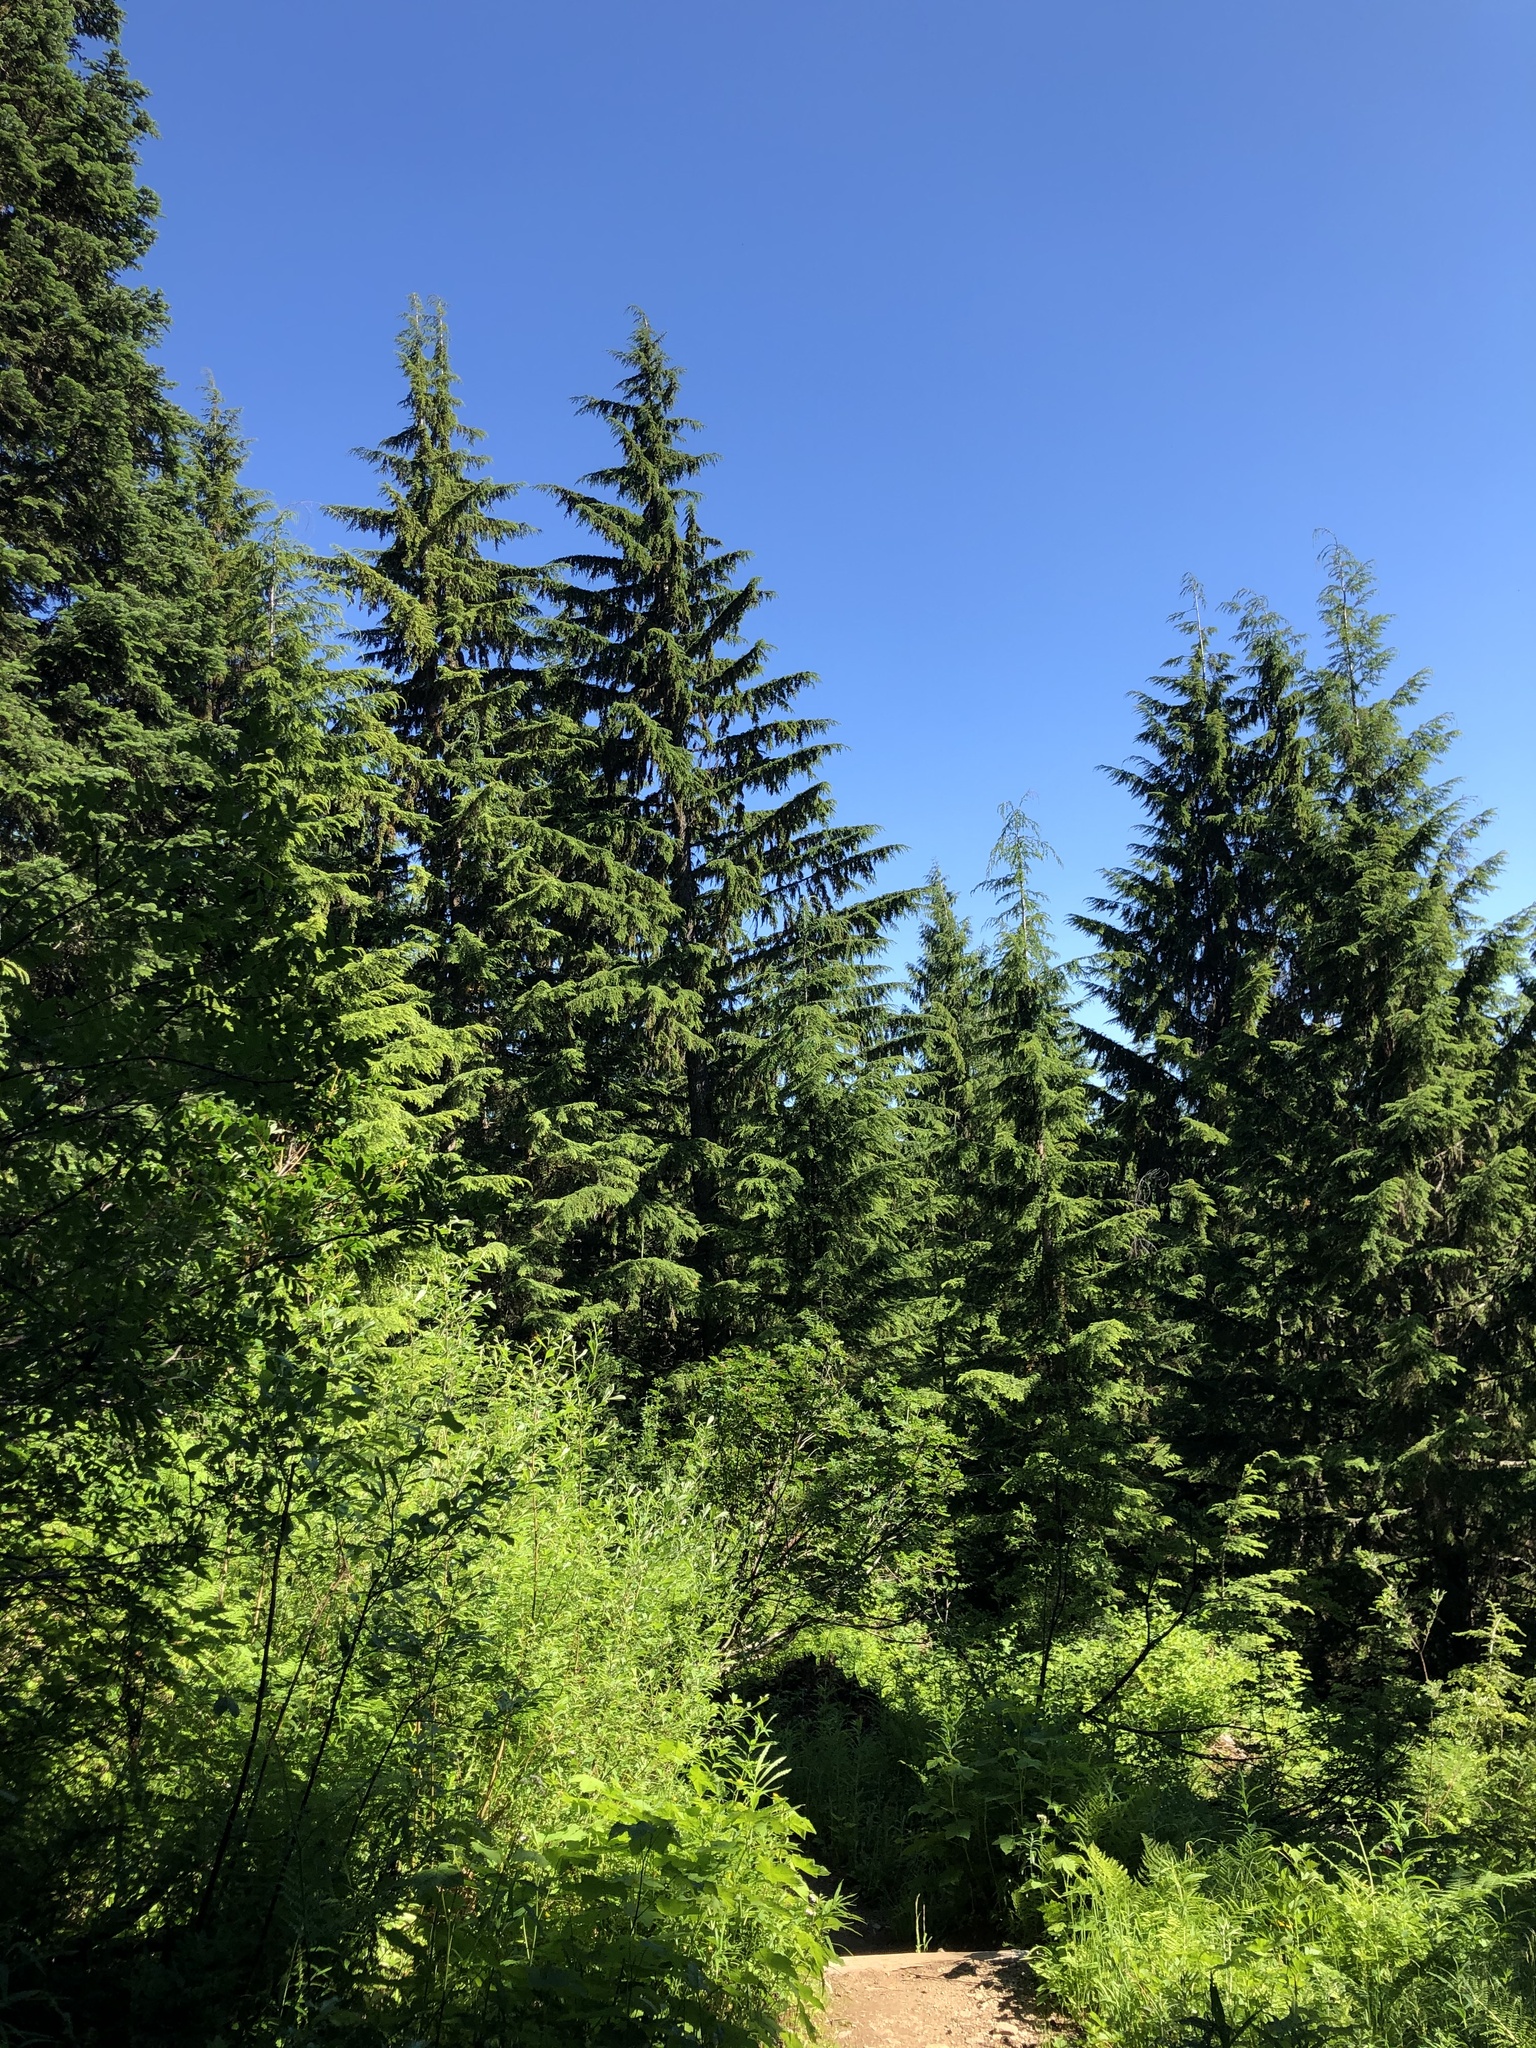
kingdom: Plantae
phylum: Tracheophyta
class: Pinopsida
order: Pinales
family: Pinaceae
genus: Tsuga
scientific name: Tsuga heterophylla
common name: Western hemlock
